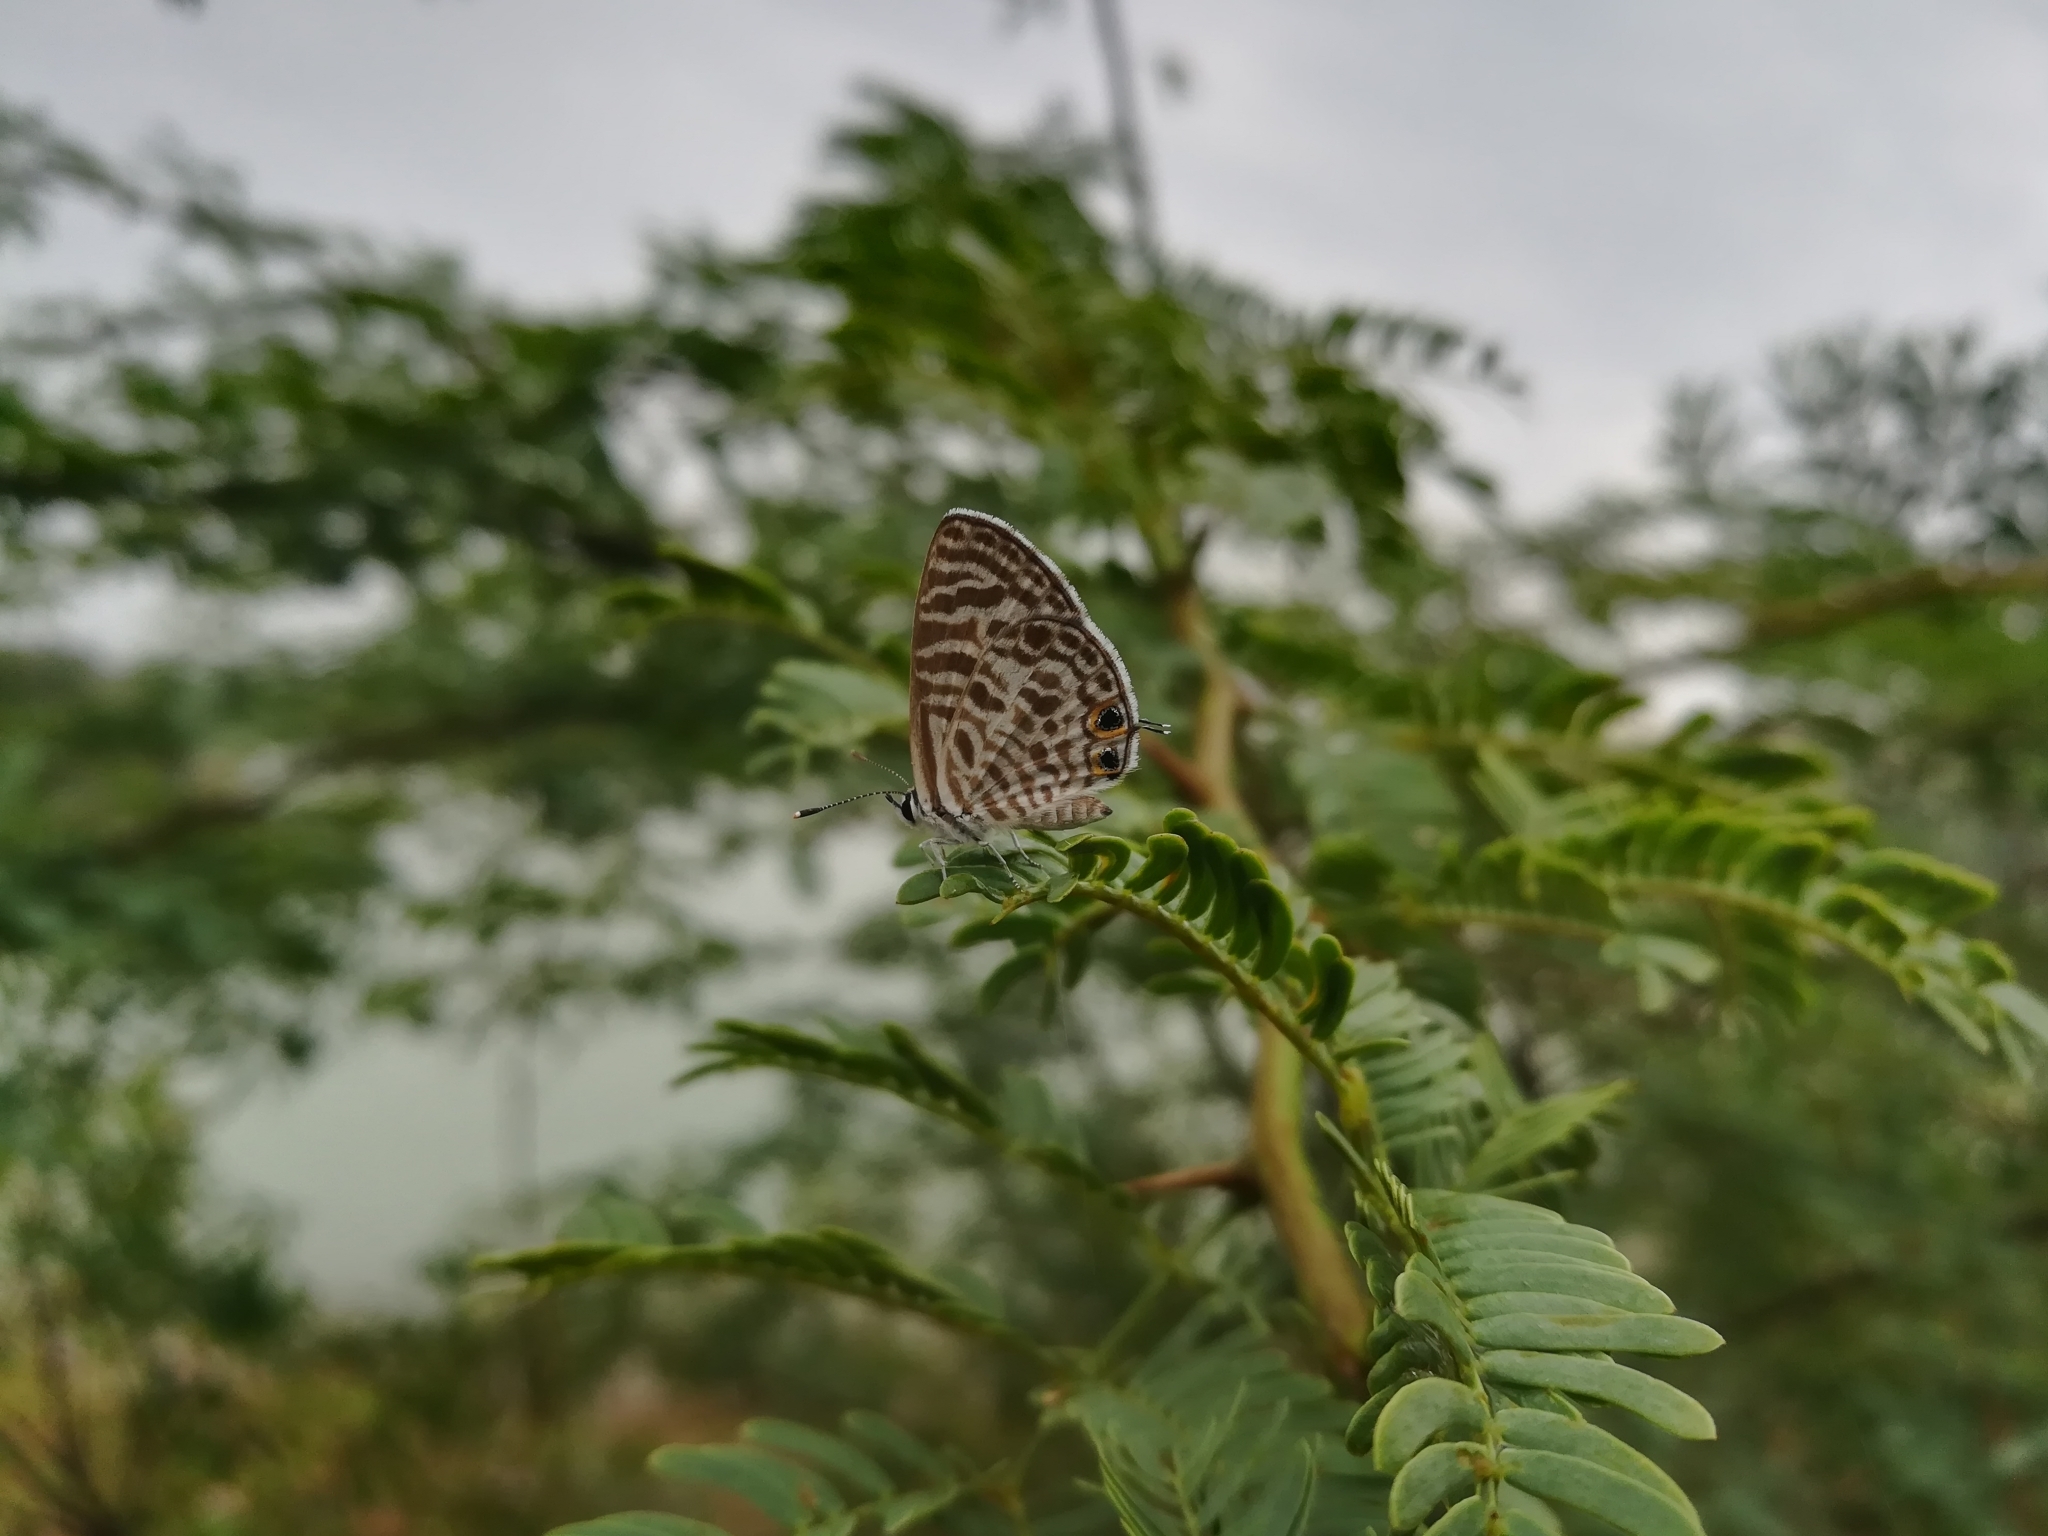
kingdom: Animalia
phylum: Arthropoda
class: Insecta
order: Lepidoptera
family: Lycaenidae
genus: Leptotes
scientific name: Leptotes plinius
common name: Zebra blue
